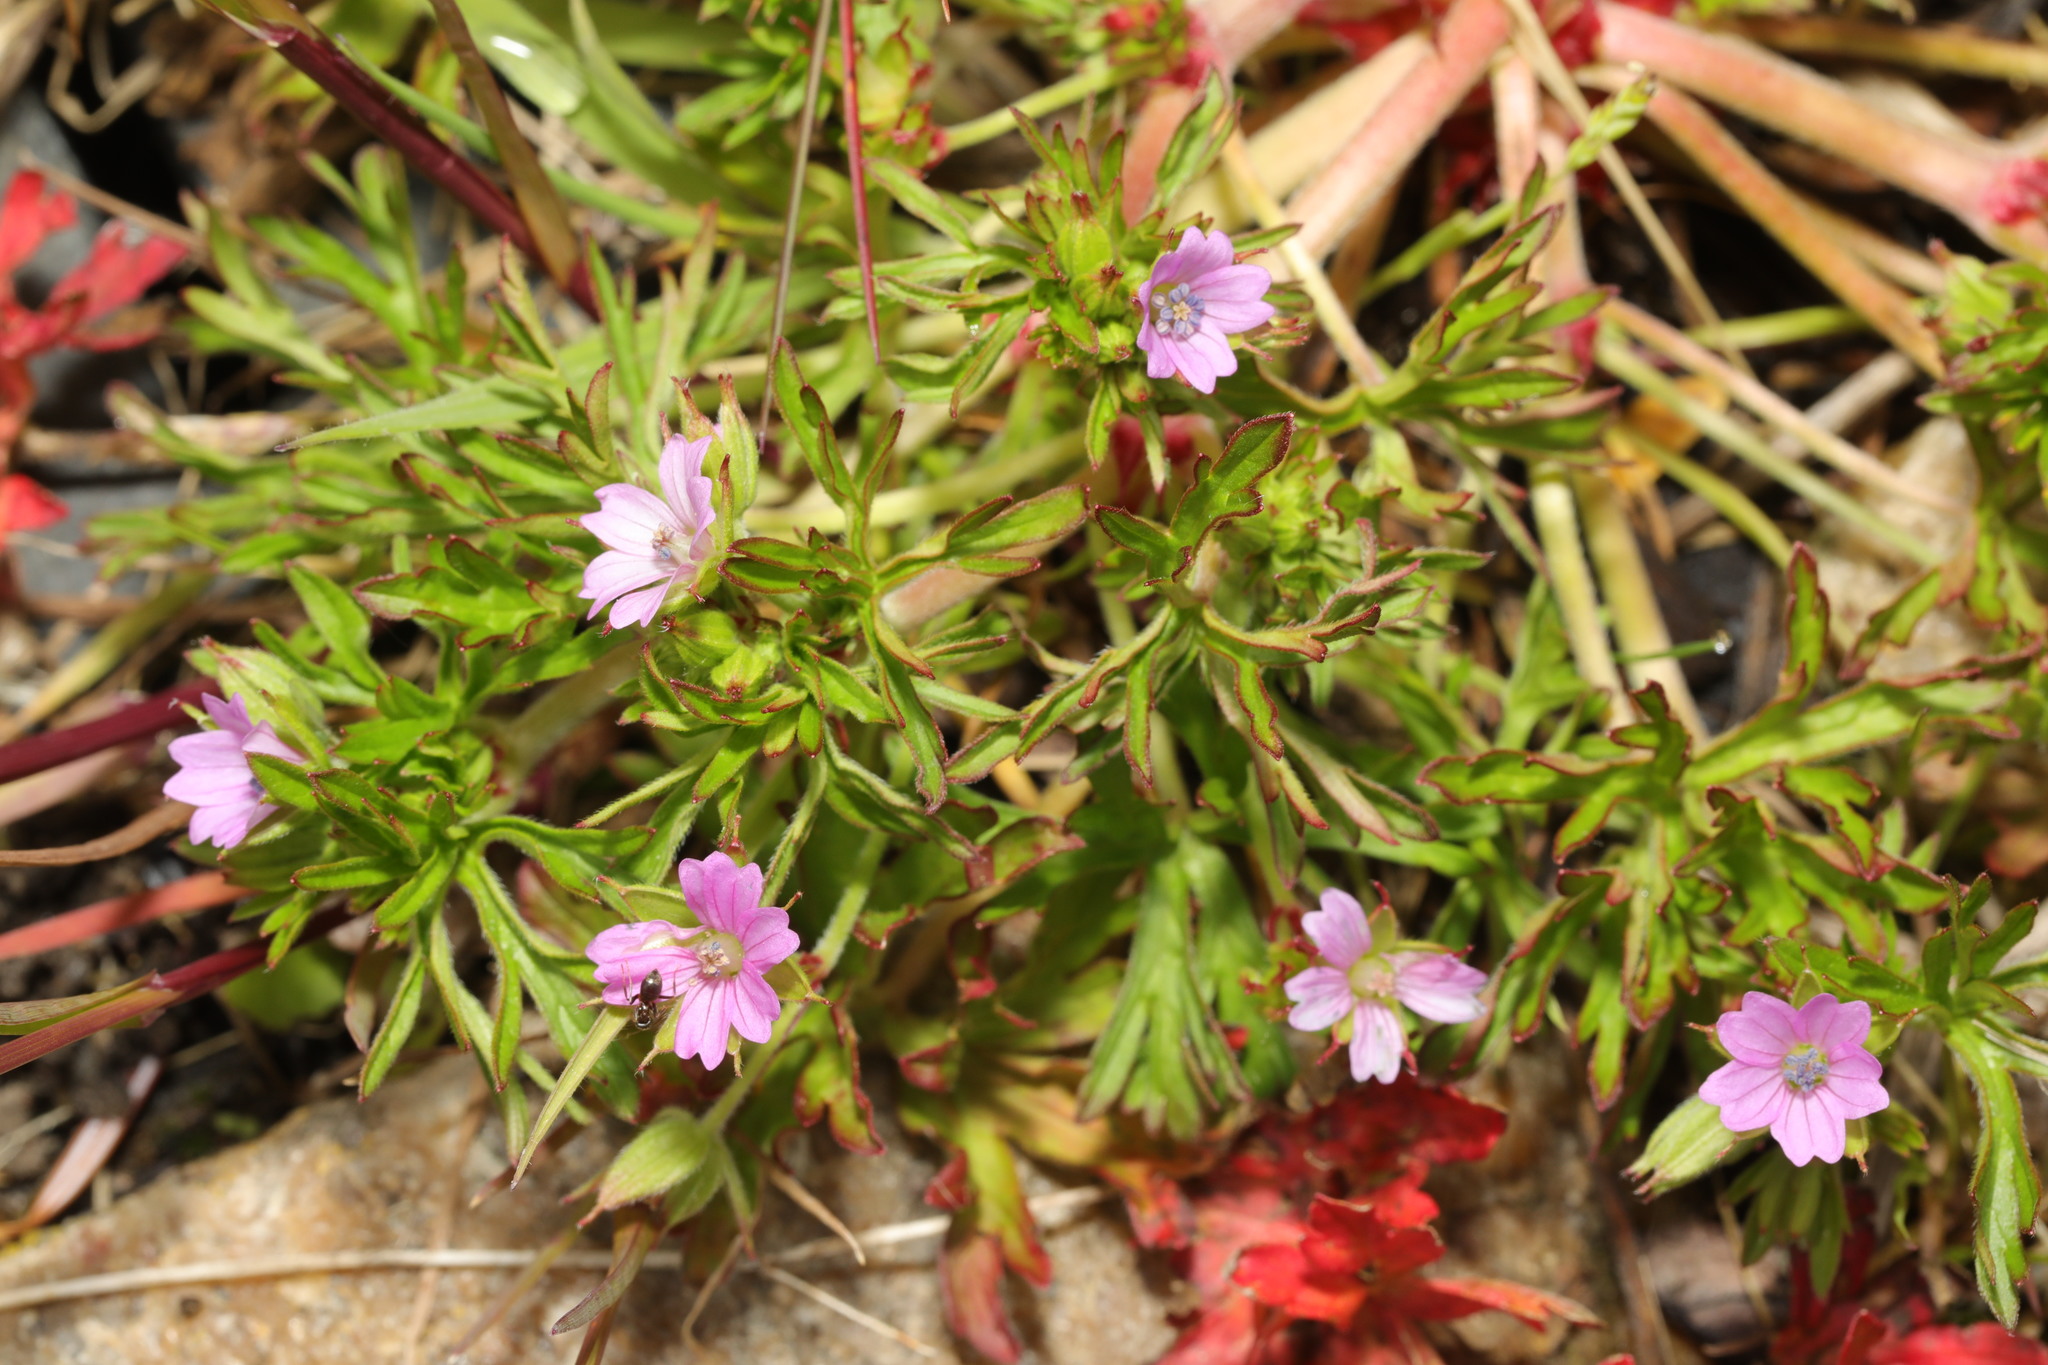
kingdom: Plantae
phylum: Tracheophyta
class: Magnoliopsida
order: Geraniales
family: Geraniaceae
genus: Geranium
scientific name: Geranium dissectum
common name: Cut-leaved crane's-bill
